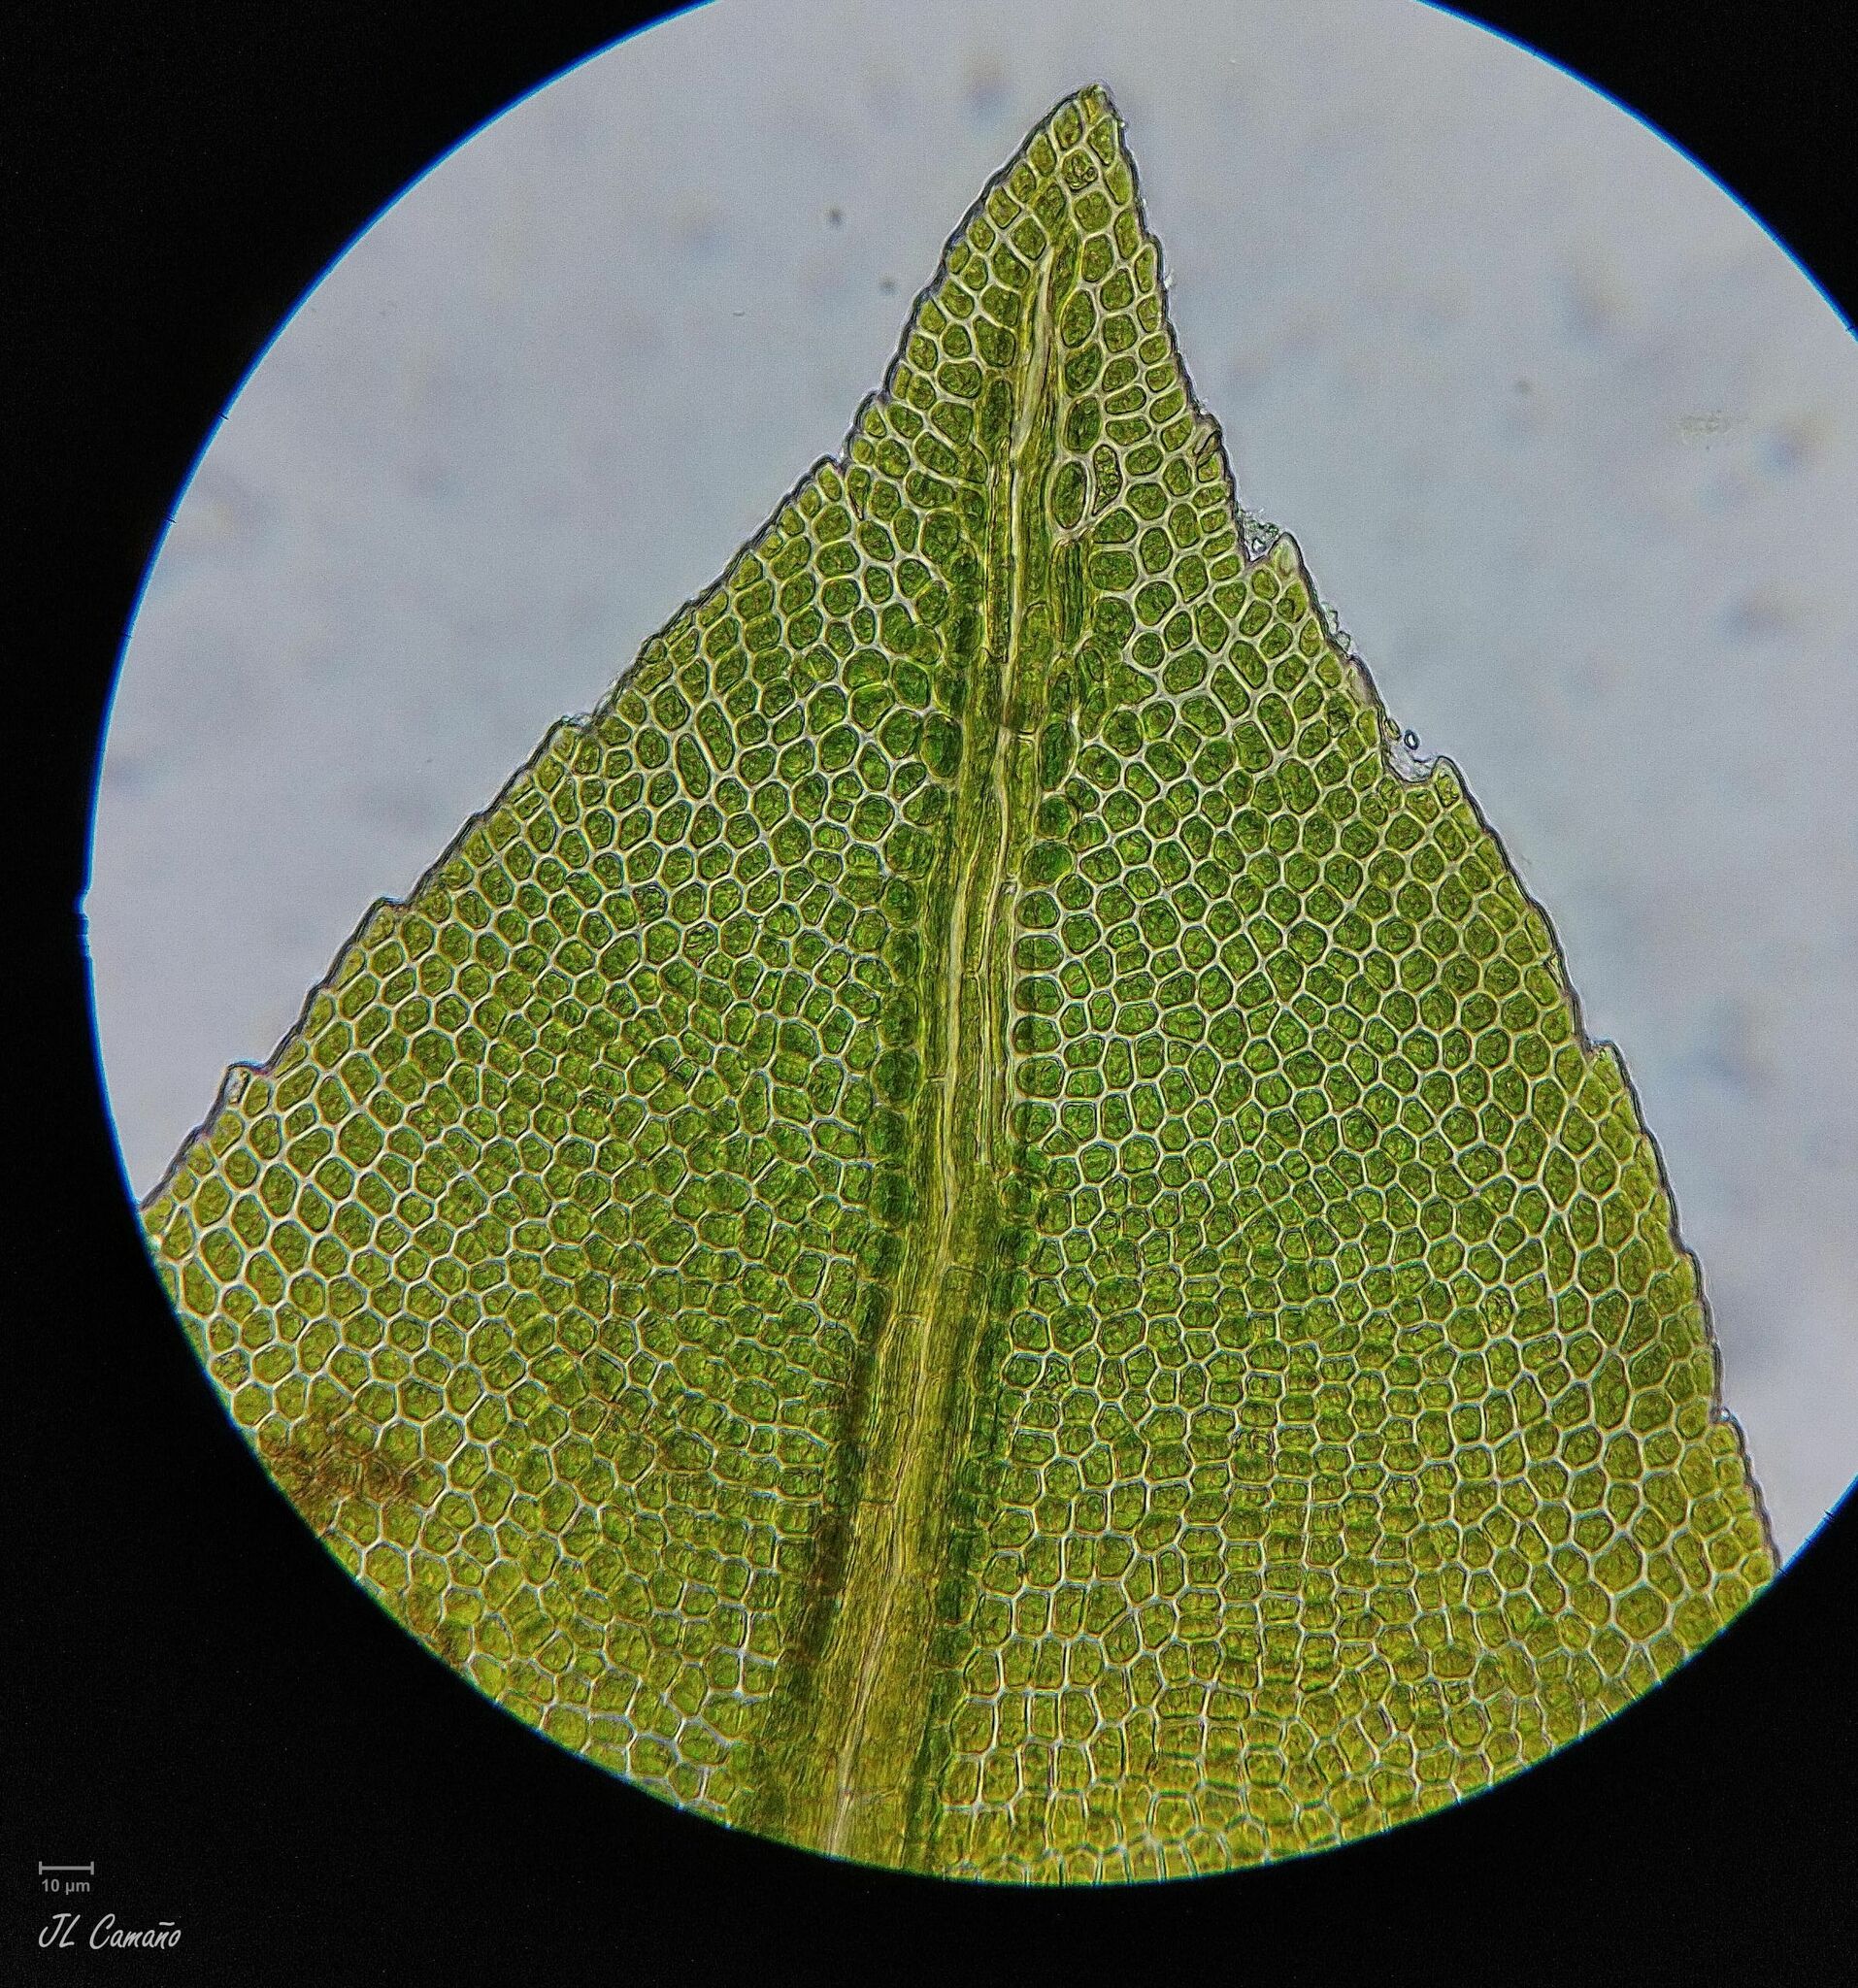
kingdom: Plantae
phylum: Bryophyta
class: Bryopsida
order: Dicranales
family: Fissidentaceae
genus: Fissidens
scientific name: Fissidens serrulatus
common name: Large atlantic pocket-moss
